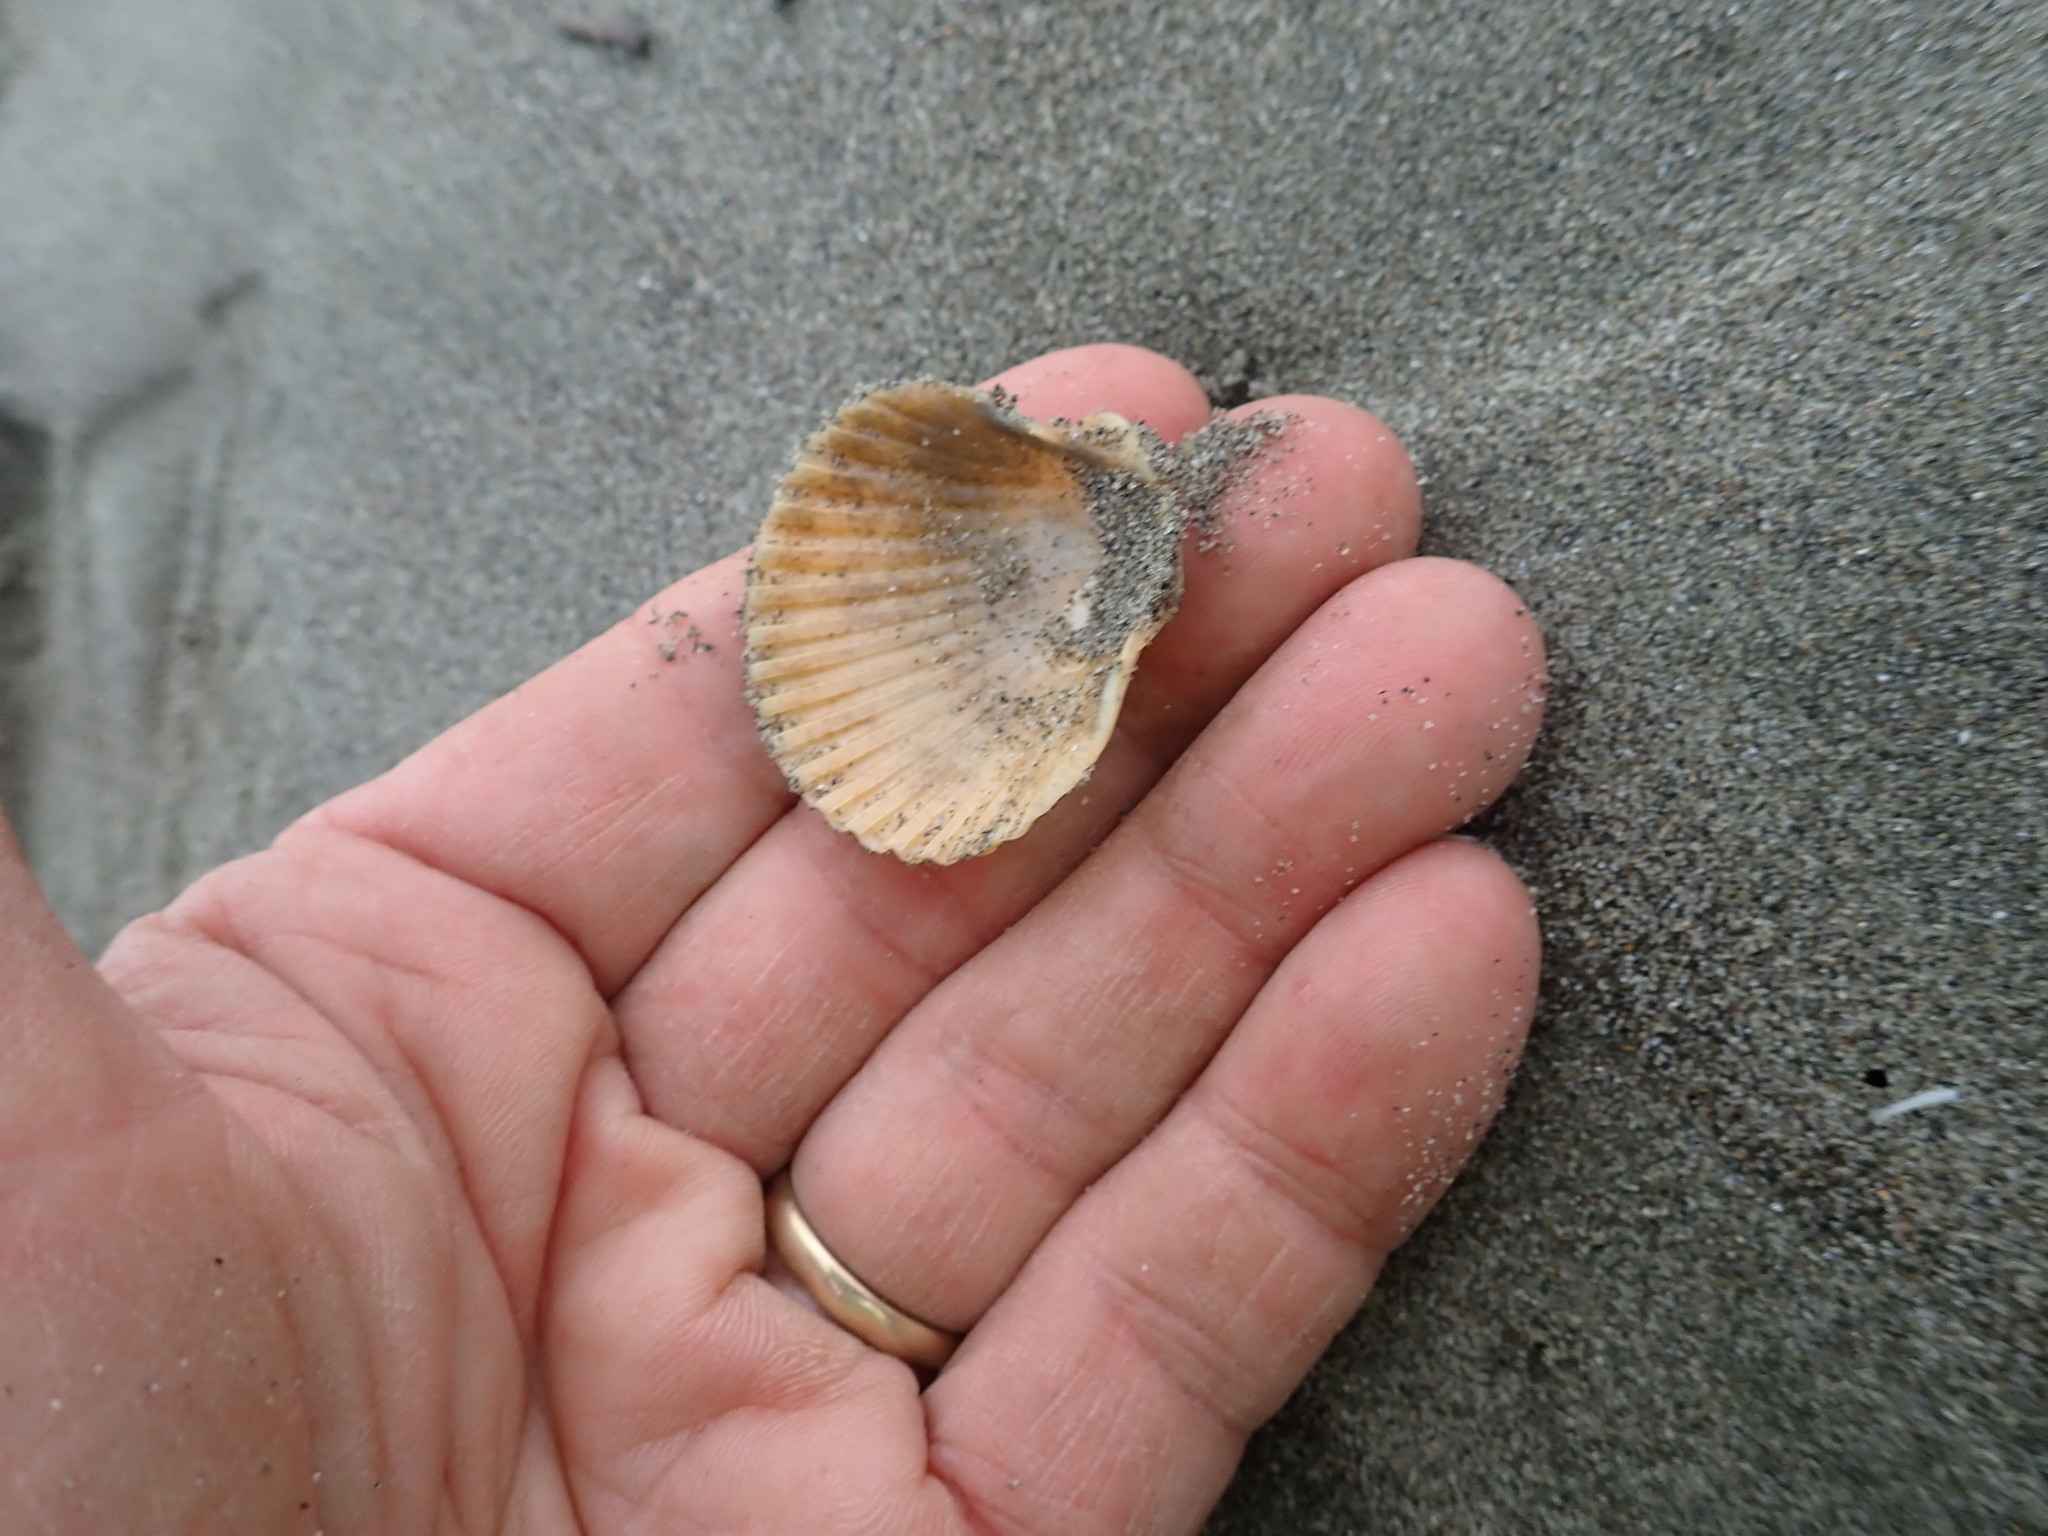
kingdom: Animalia
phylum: Mollusca
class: Bivalvia
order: Pectinida
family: Pectinidae
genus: Pecten
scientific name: Pecten novaezelandiae
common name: New zealand scallop
